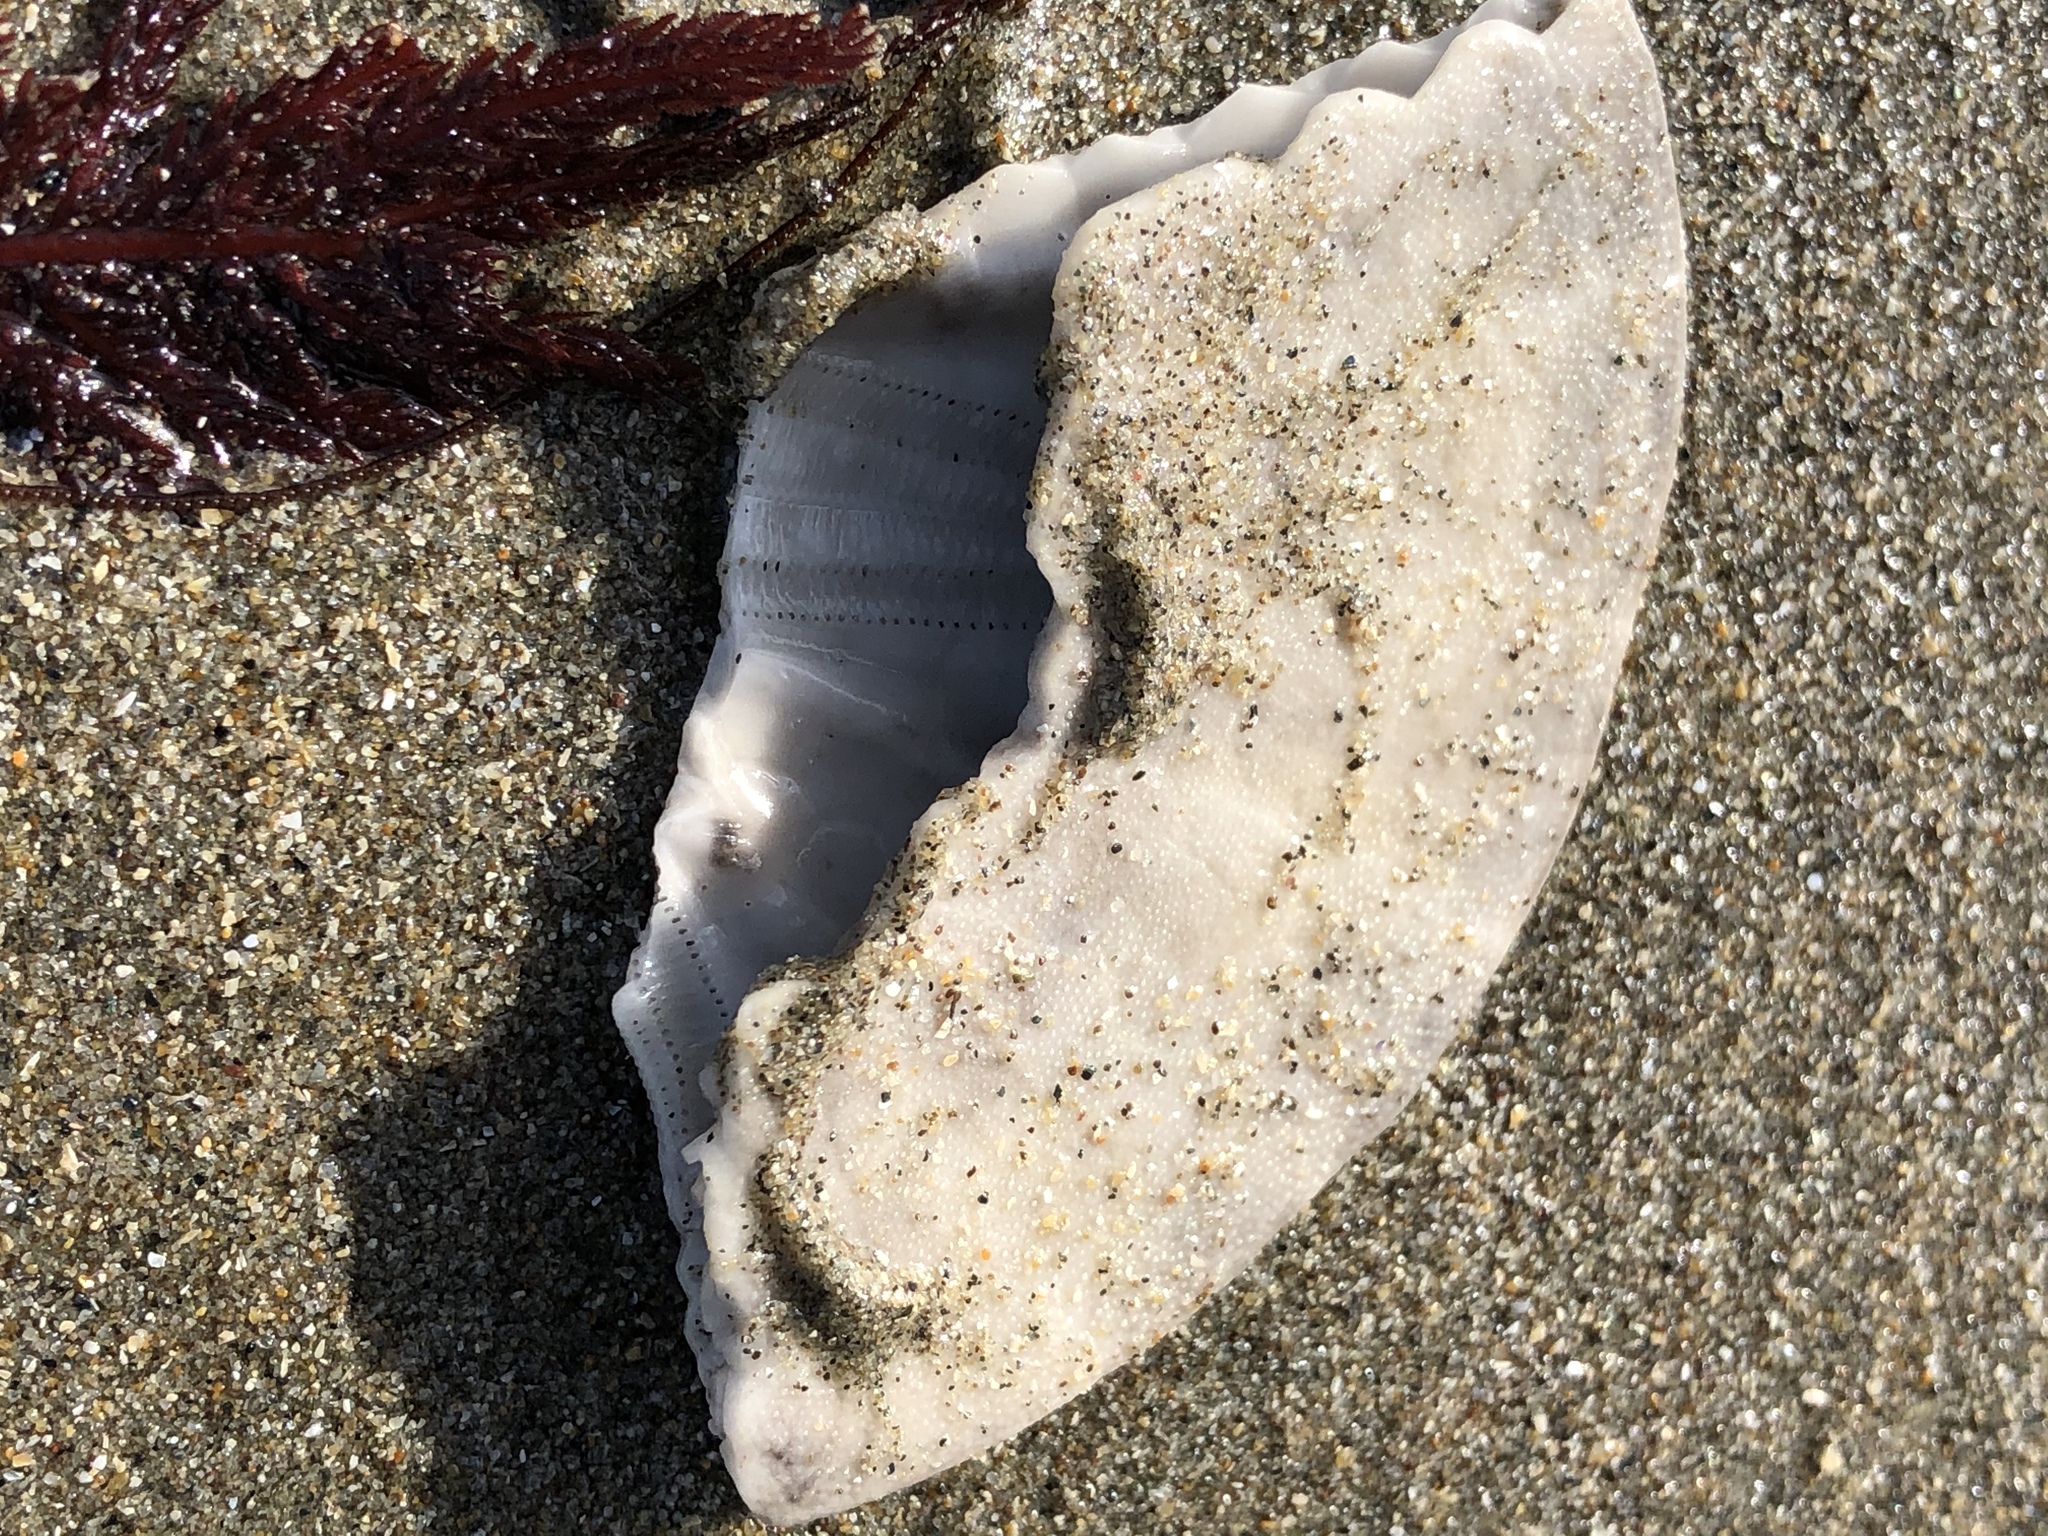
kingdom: Animalia
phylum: Echinodermata
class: Echinoidea
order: Echinolampadacea
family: Dendrasteridae
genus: Dendraster
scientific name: Dendraster excentricus
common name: Eccentric sand dollar sea urchin
